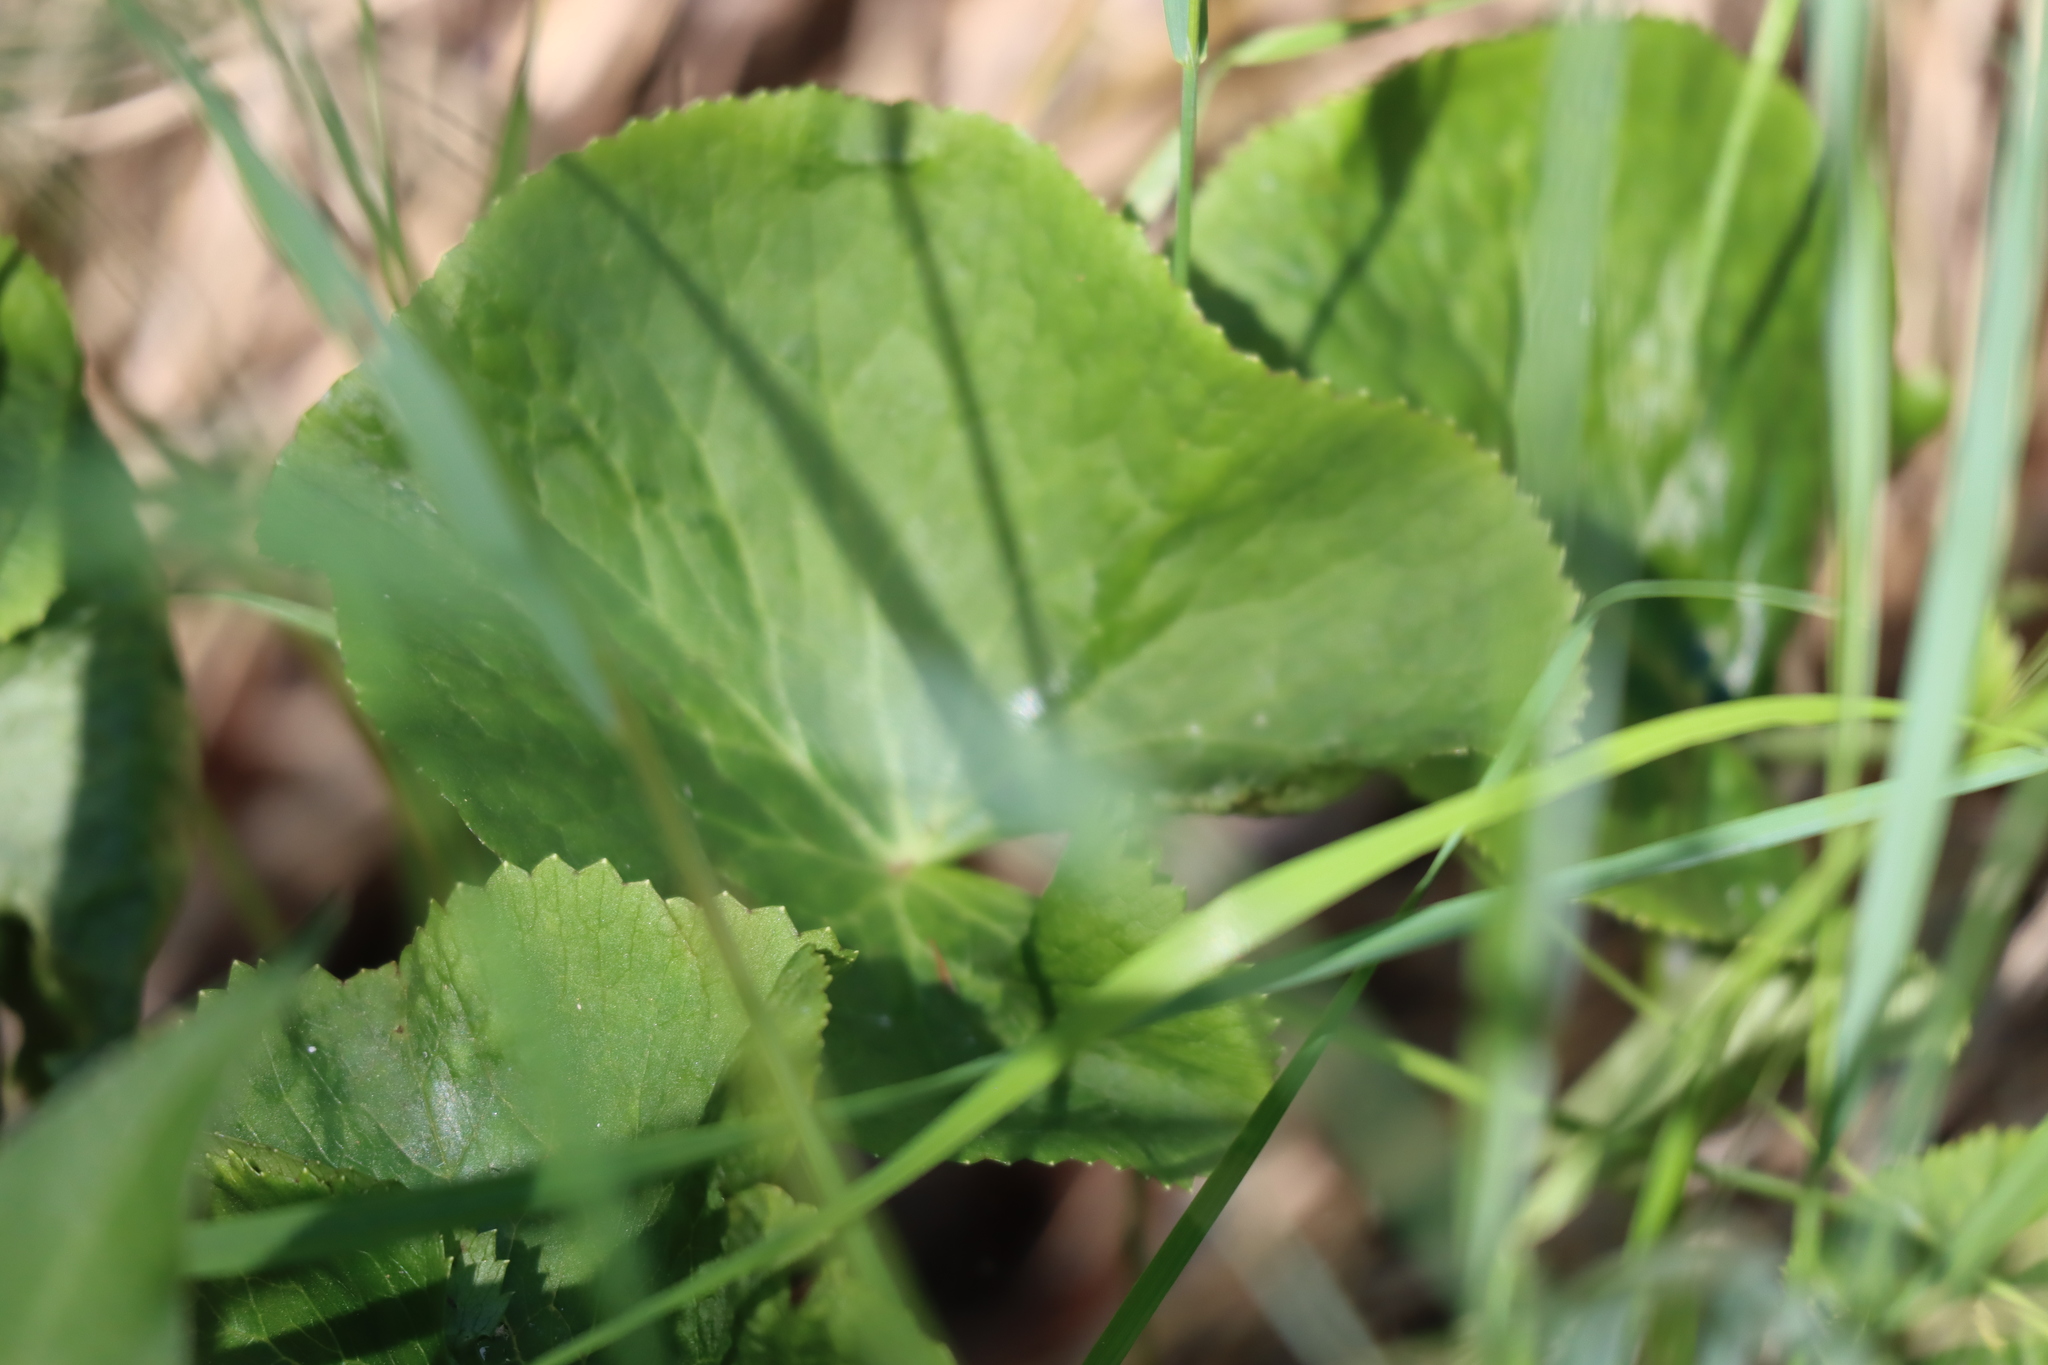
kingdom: Plantae
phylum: Tracheophyta
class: Magnoliopsida
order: Ranunculales
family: Ranunculaceae
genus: Caltha
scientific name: Caltha palustris
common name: Marsh marigold
